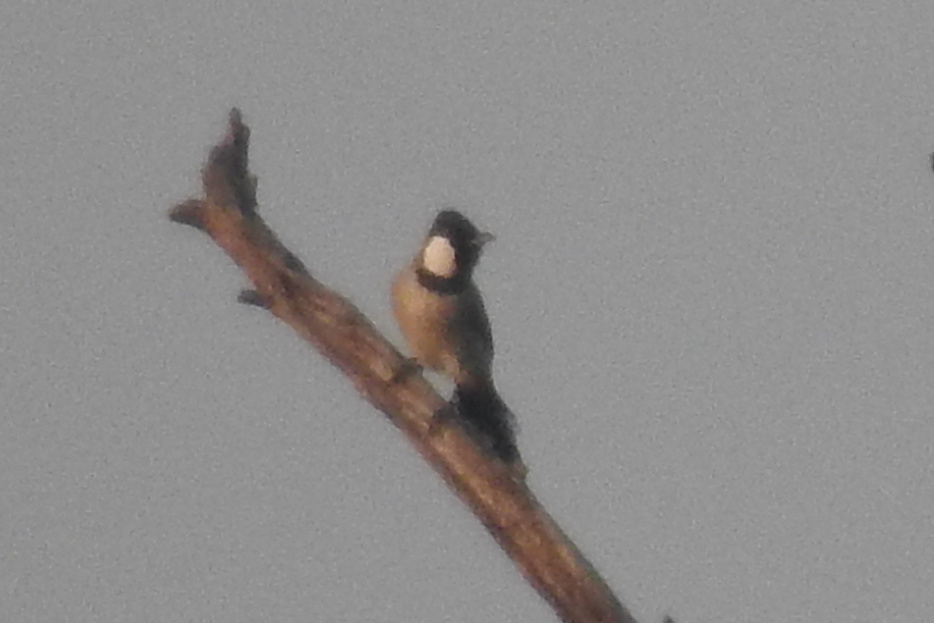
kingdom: Animalia
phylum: Chordata
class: Aves
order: Passeriformes
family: Pycnonotidae
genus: Pycnonotus
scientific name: Pycnonotus leucotis
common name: White-eared bulbul
